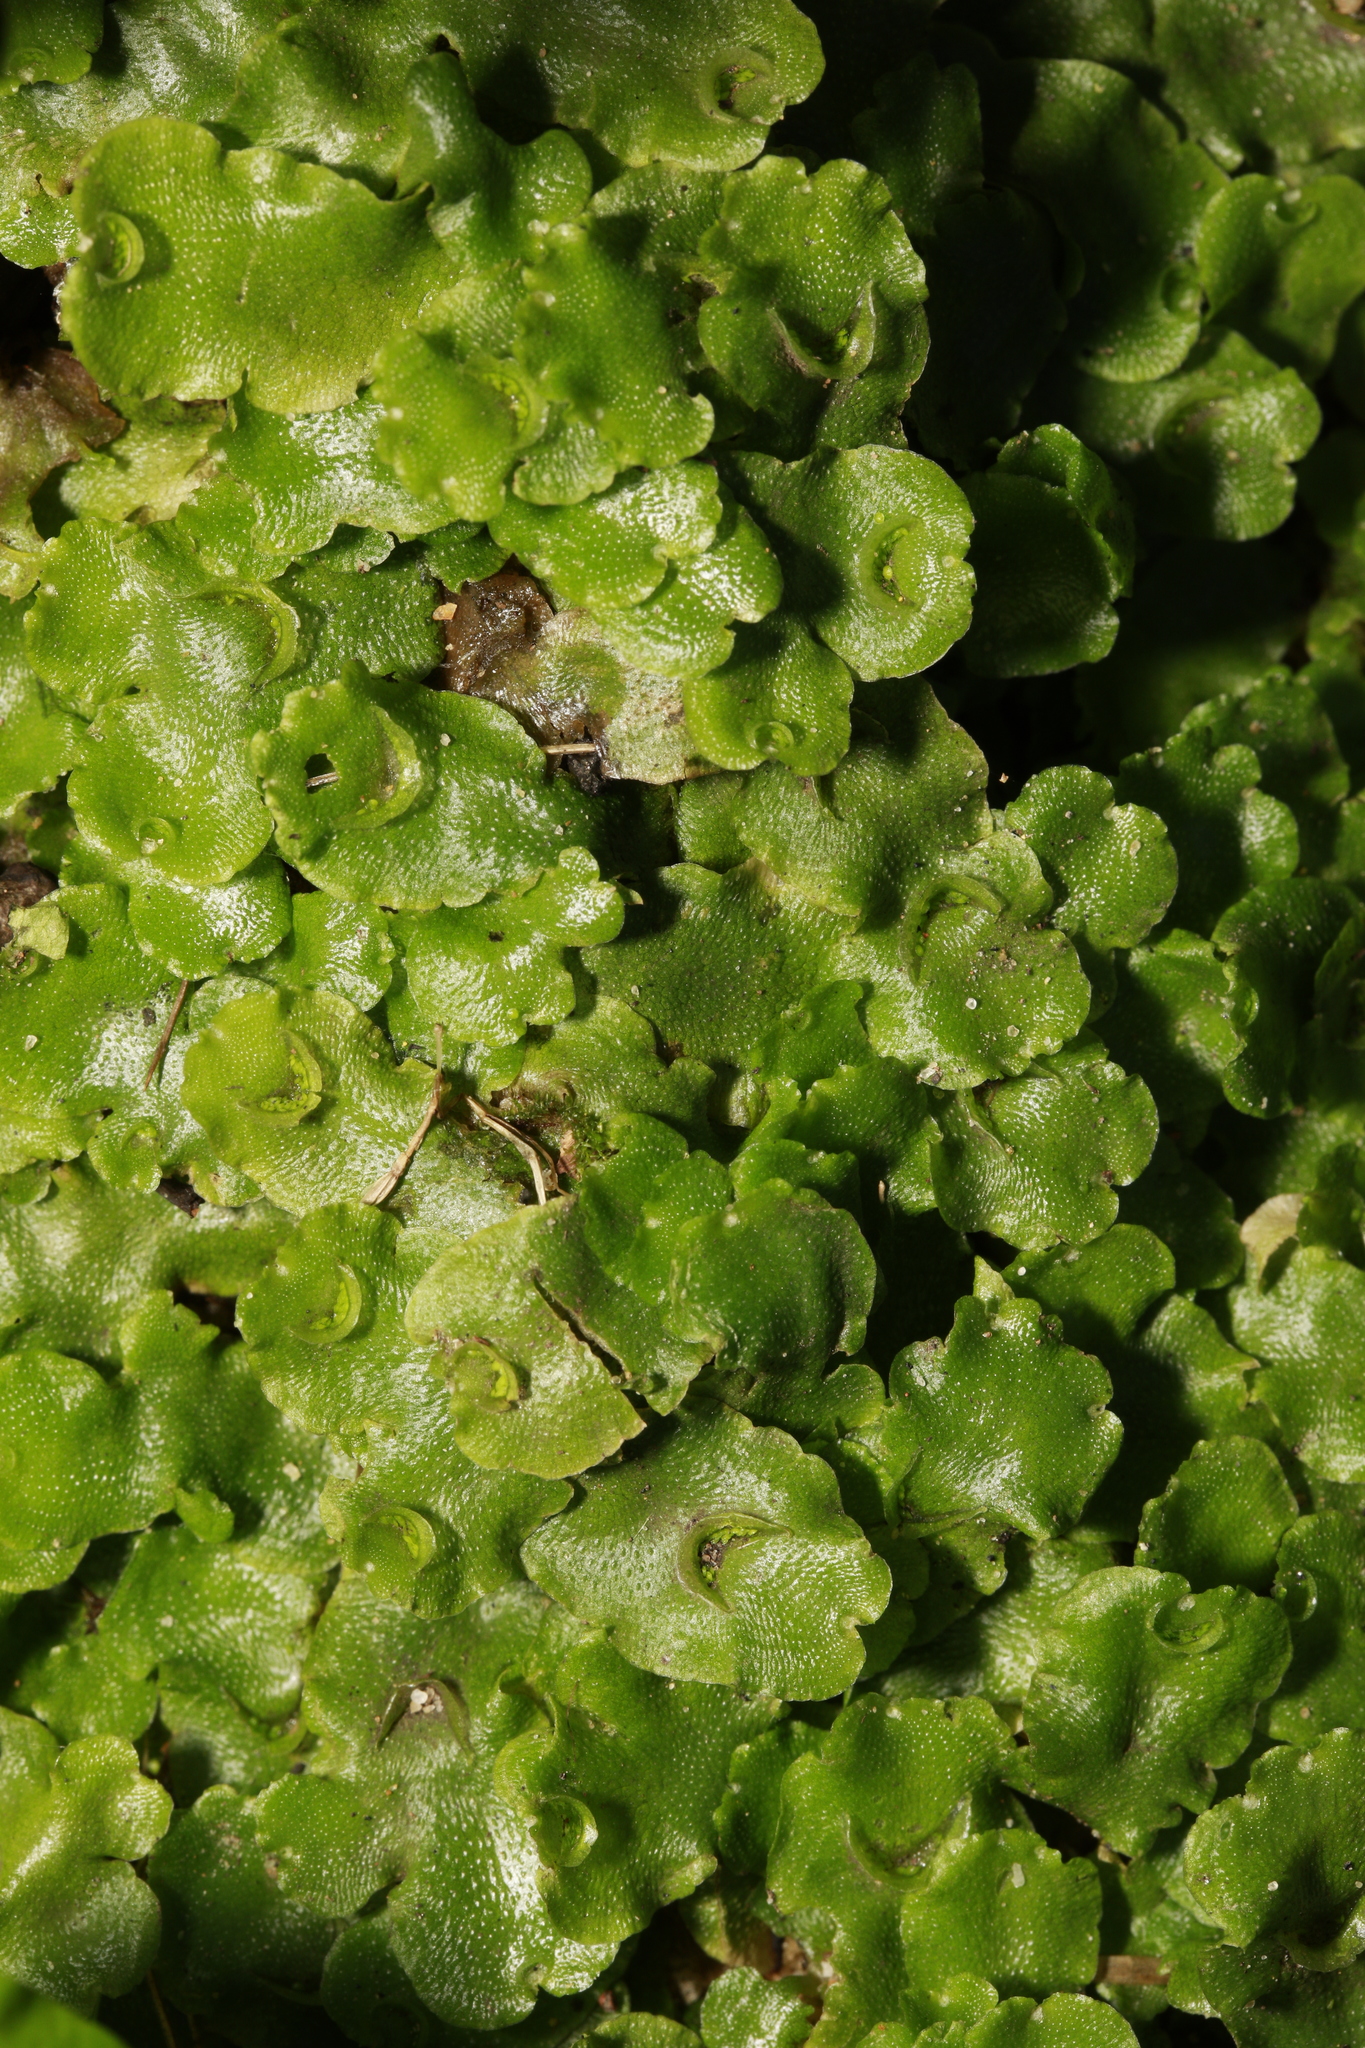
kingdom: Plantae
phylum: Marchantiophyta
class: Marchantiopsida
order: Lunulariales
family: Lunulariaceae
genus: Lunularia
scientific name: Lunularia cruciata
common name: Crescent-cup liverwort
